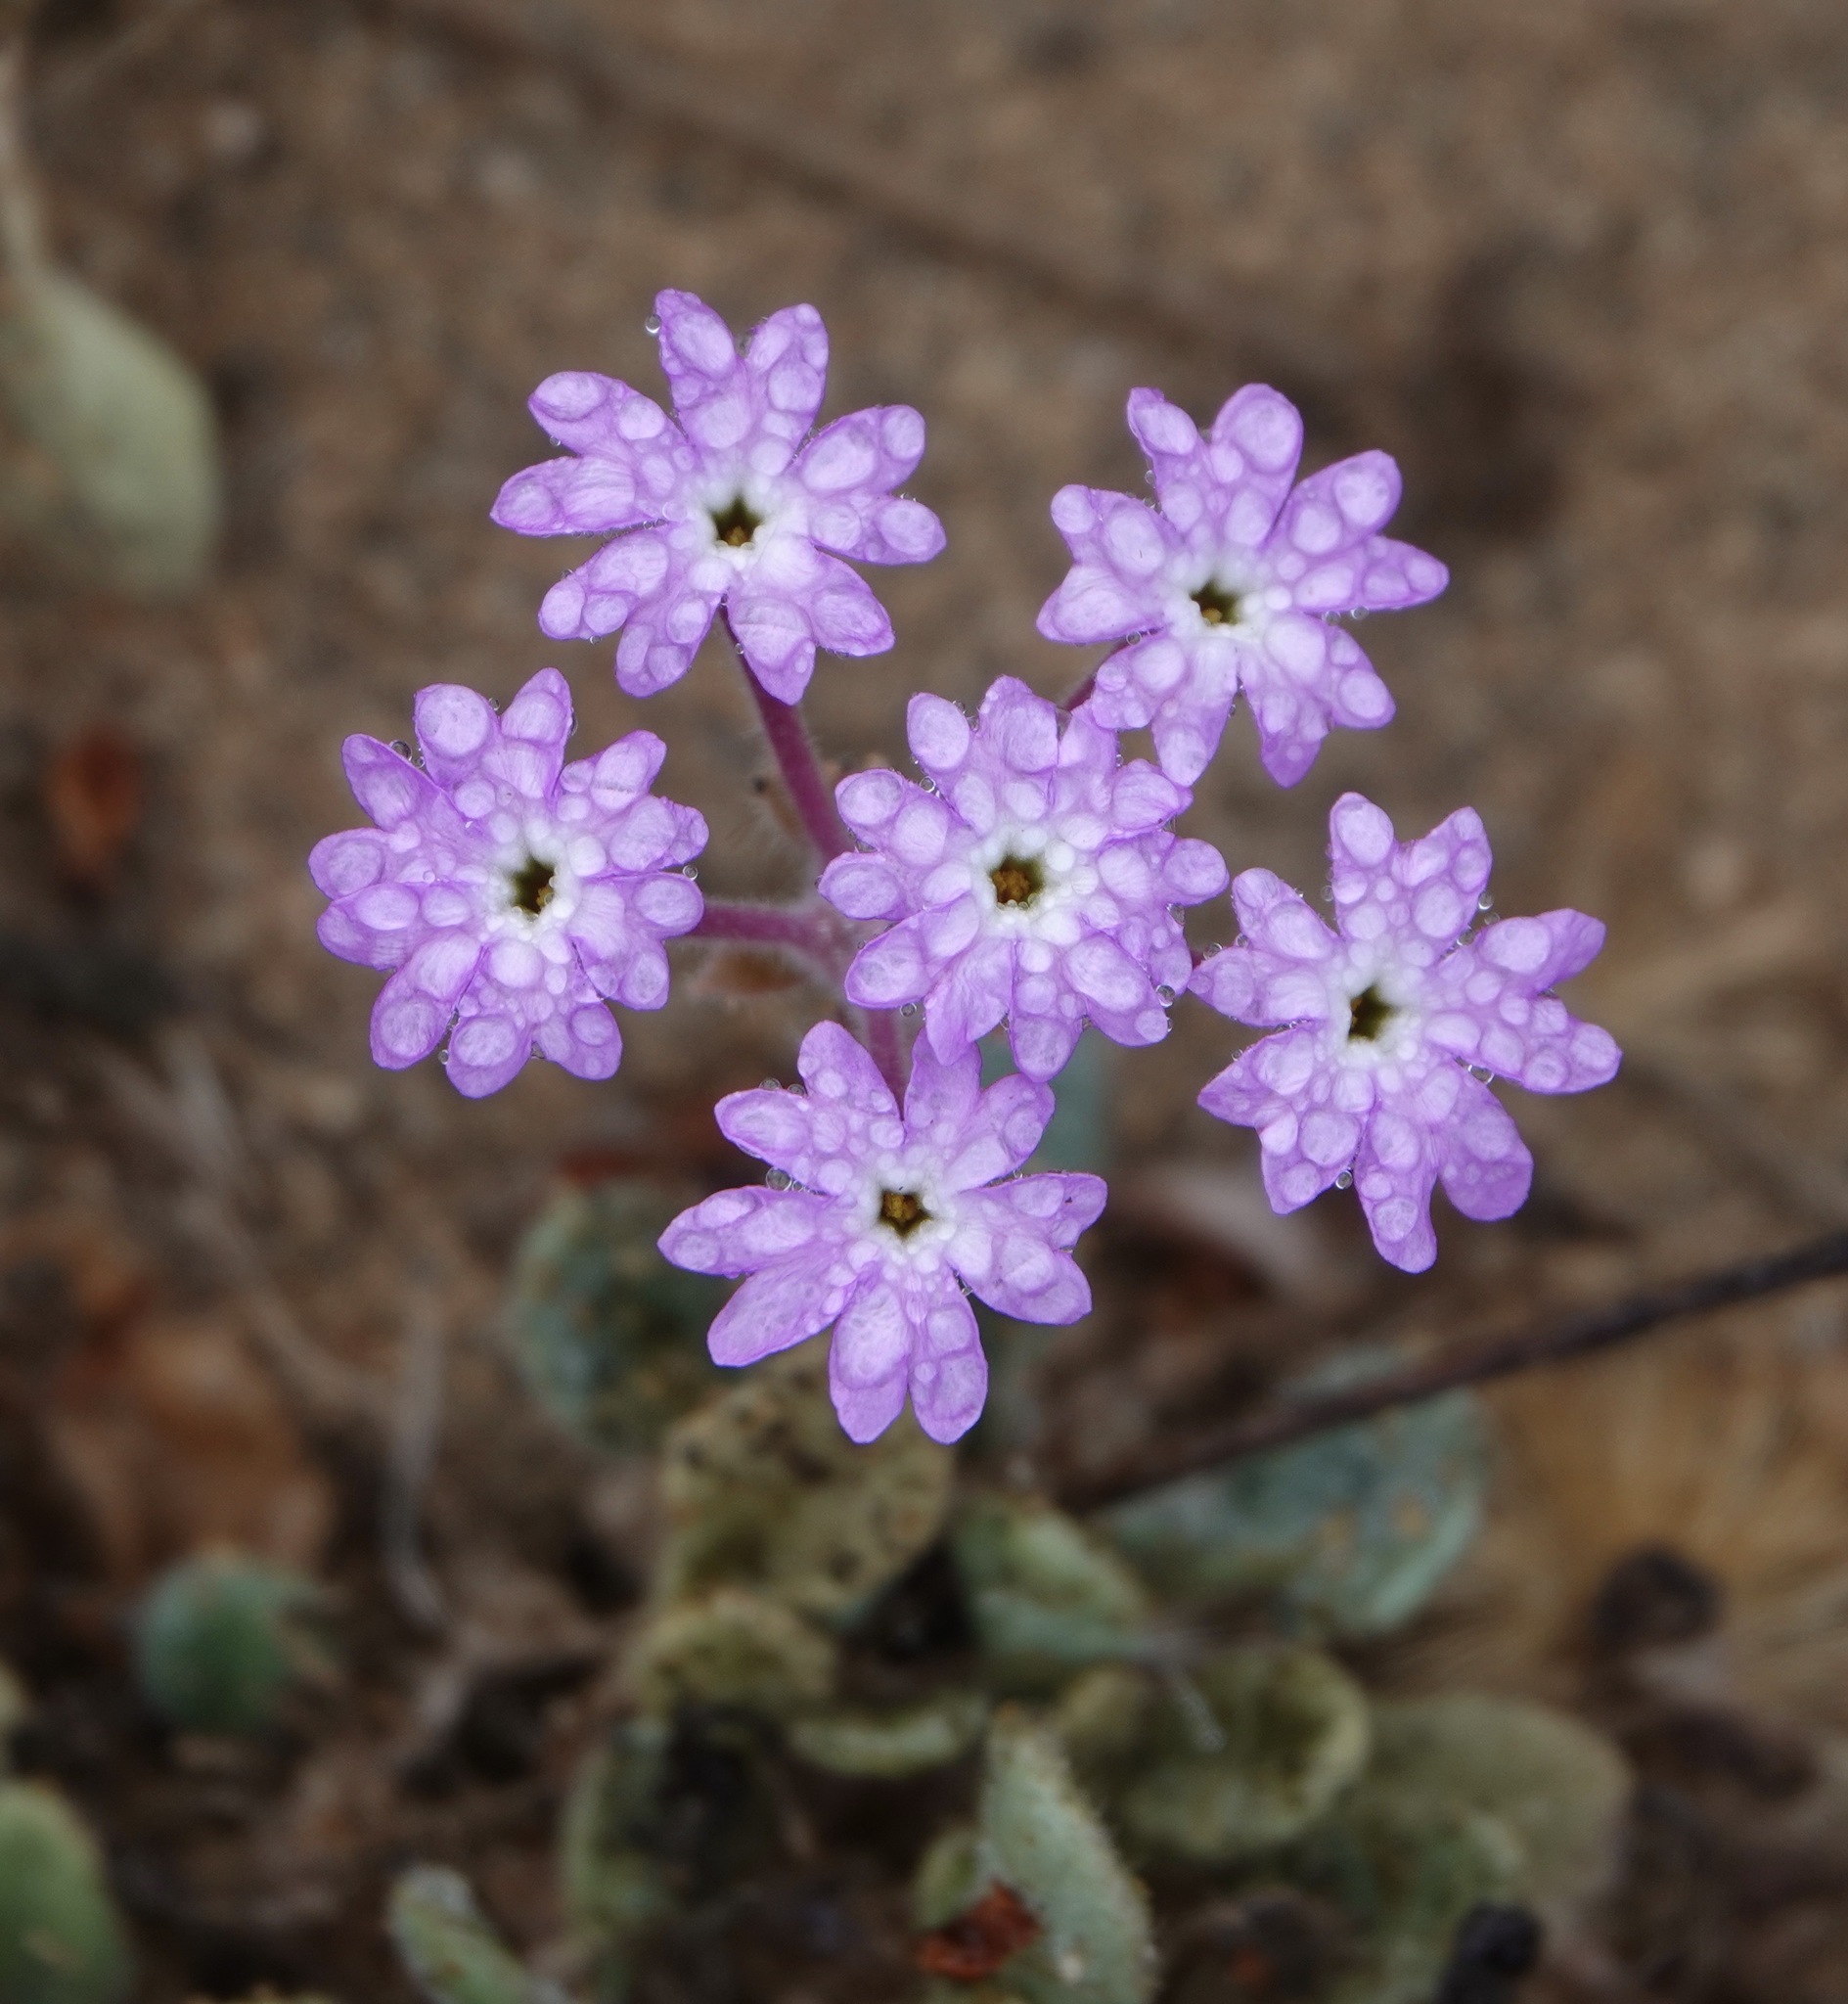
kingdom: Plantae
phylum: Tracheophyta
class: Magnoliopsida
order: Caryophyllales
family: Nyctaginaceae
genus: Abronia
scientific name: Abronia umbellata
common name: Sand-verbena
